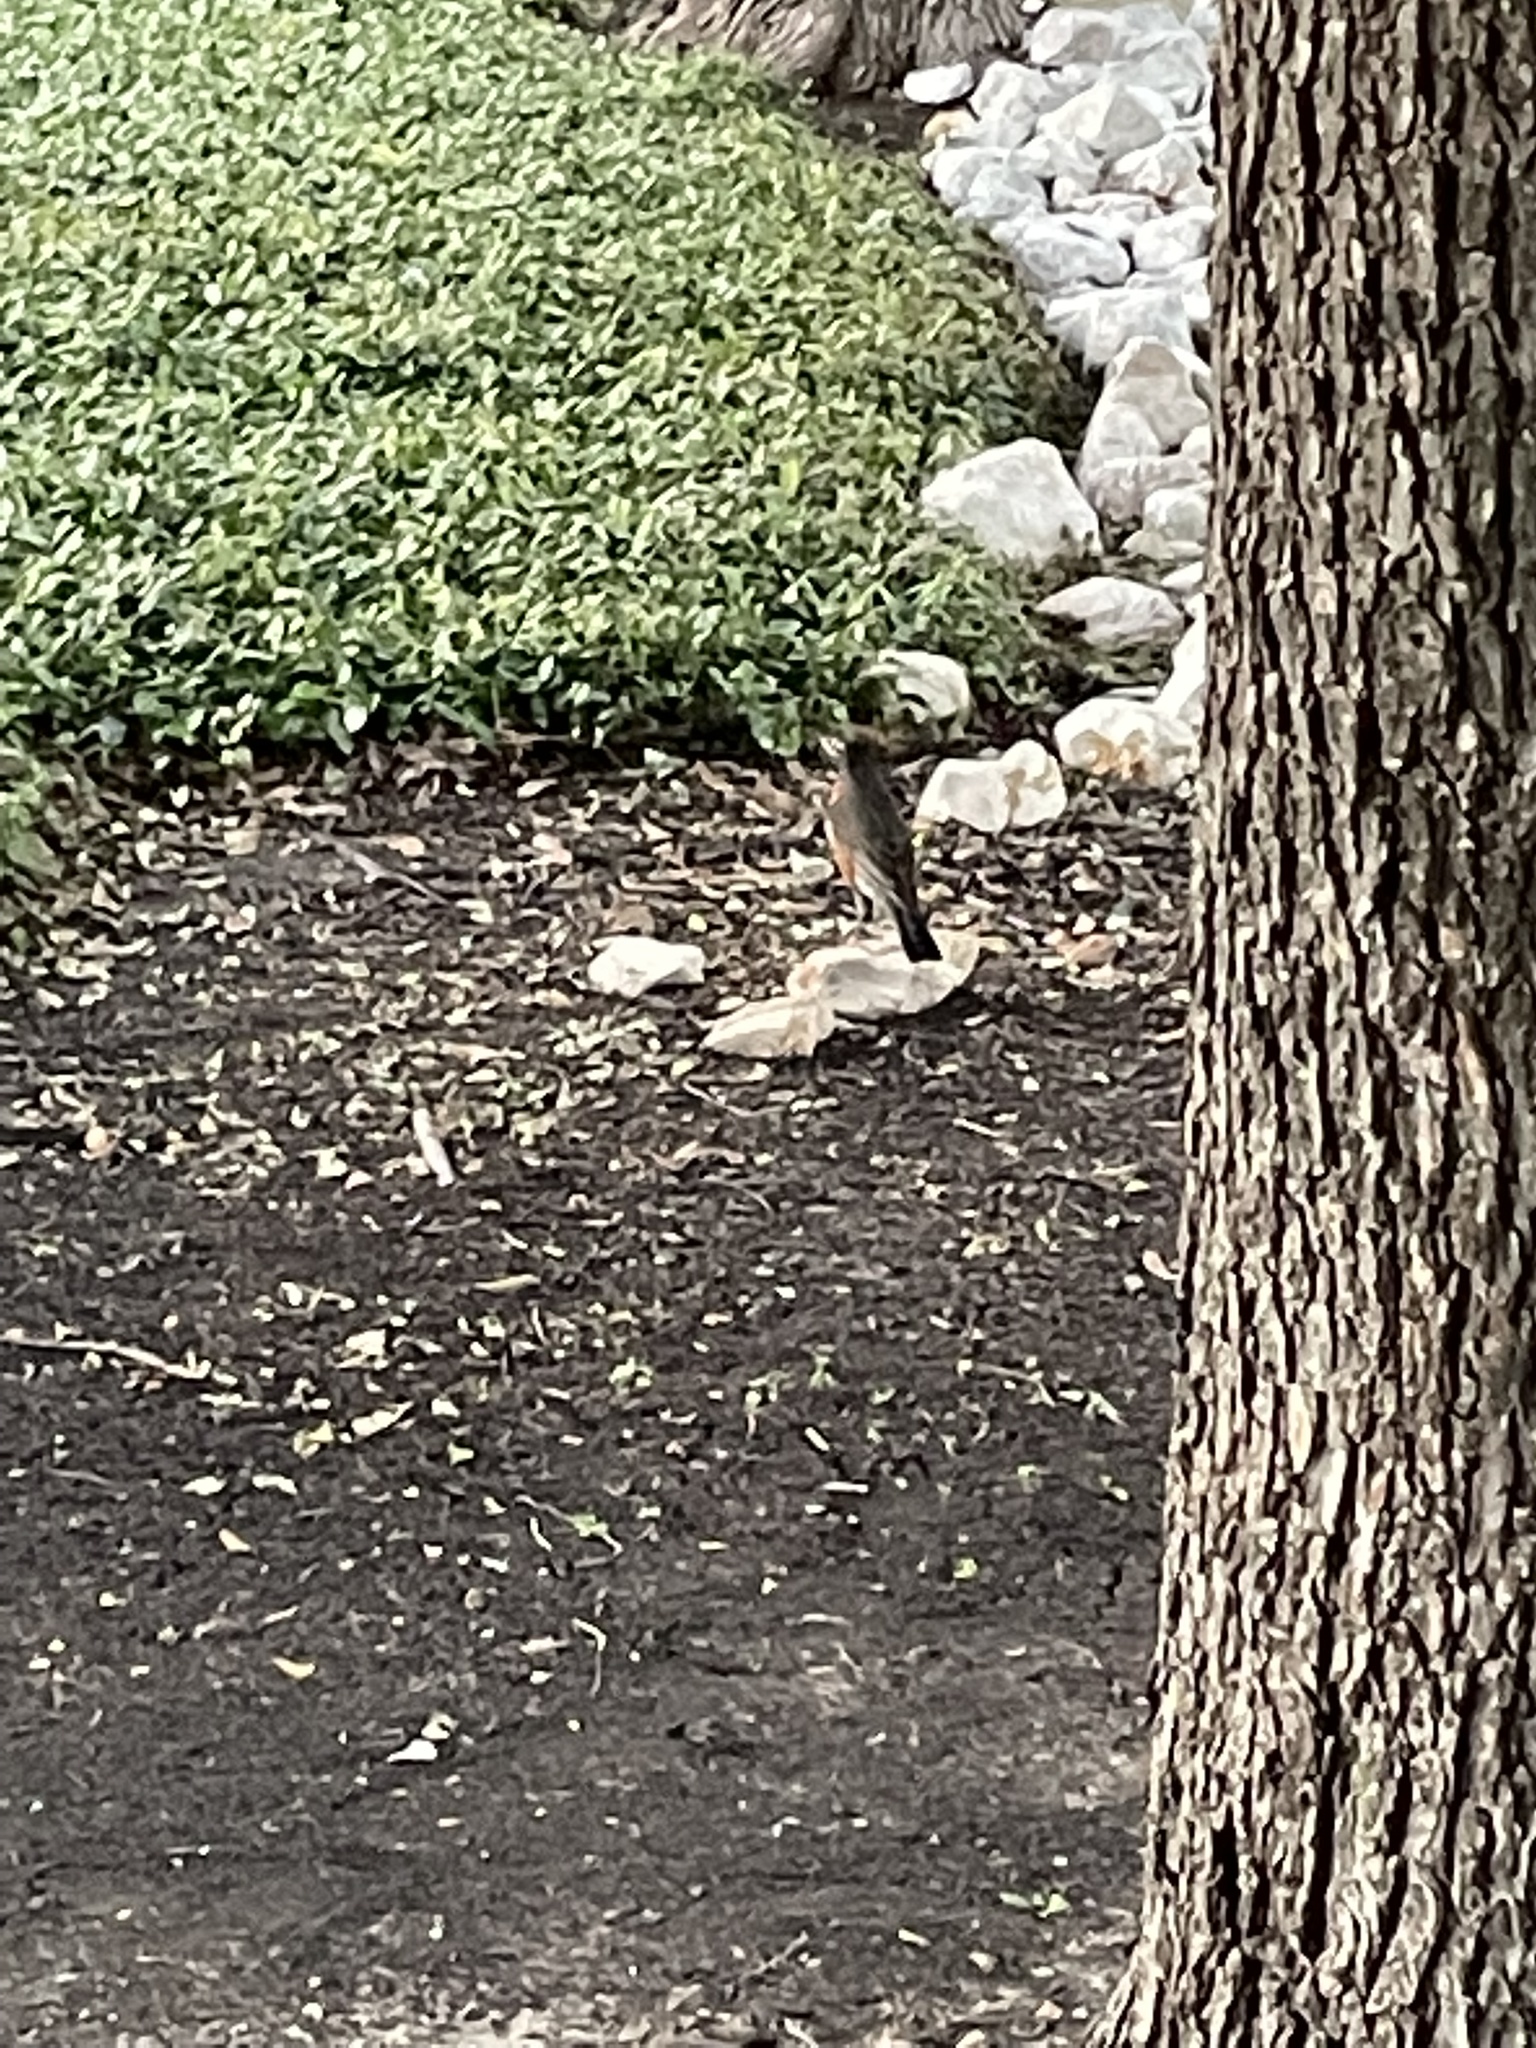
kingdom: Animalia
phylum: Chordata
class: Aves
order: Passeriformes
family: Turdidae
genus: Turdus
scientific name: Turdus migratorius
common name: American robin
